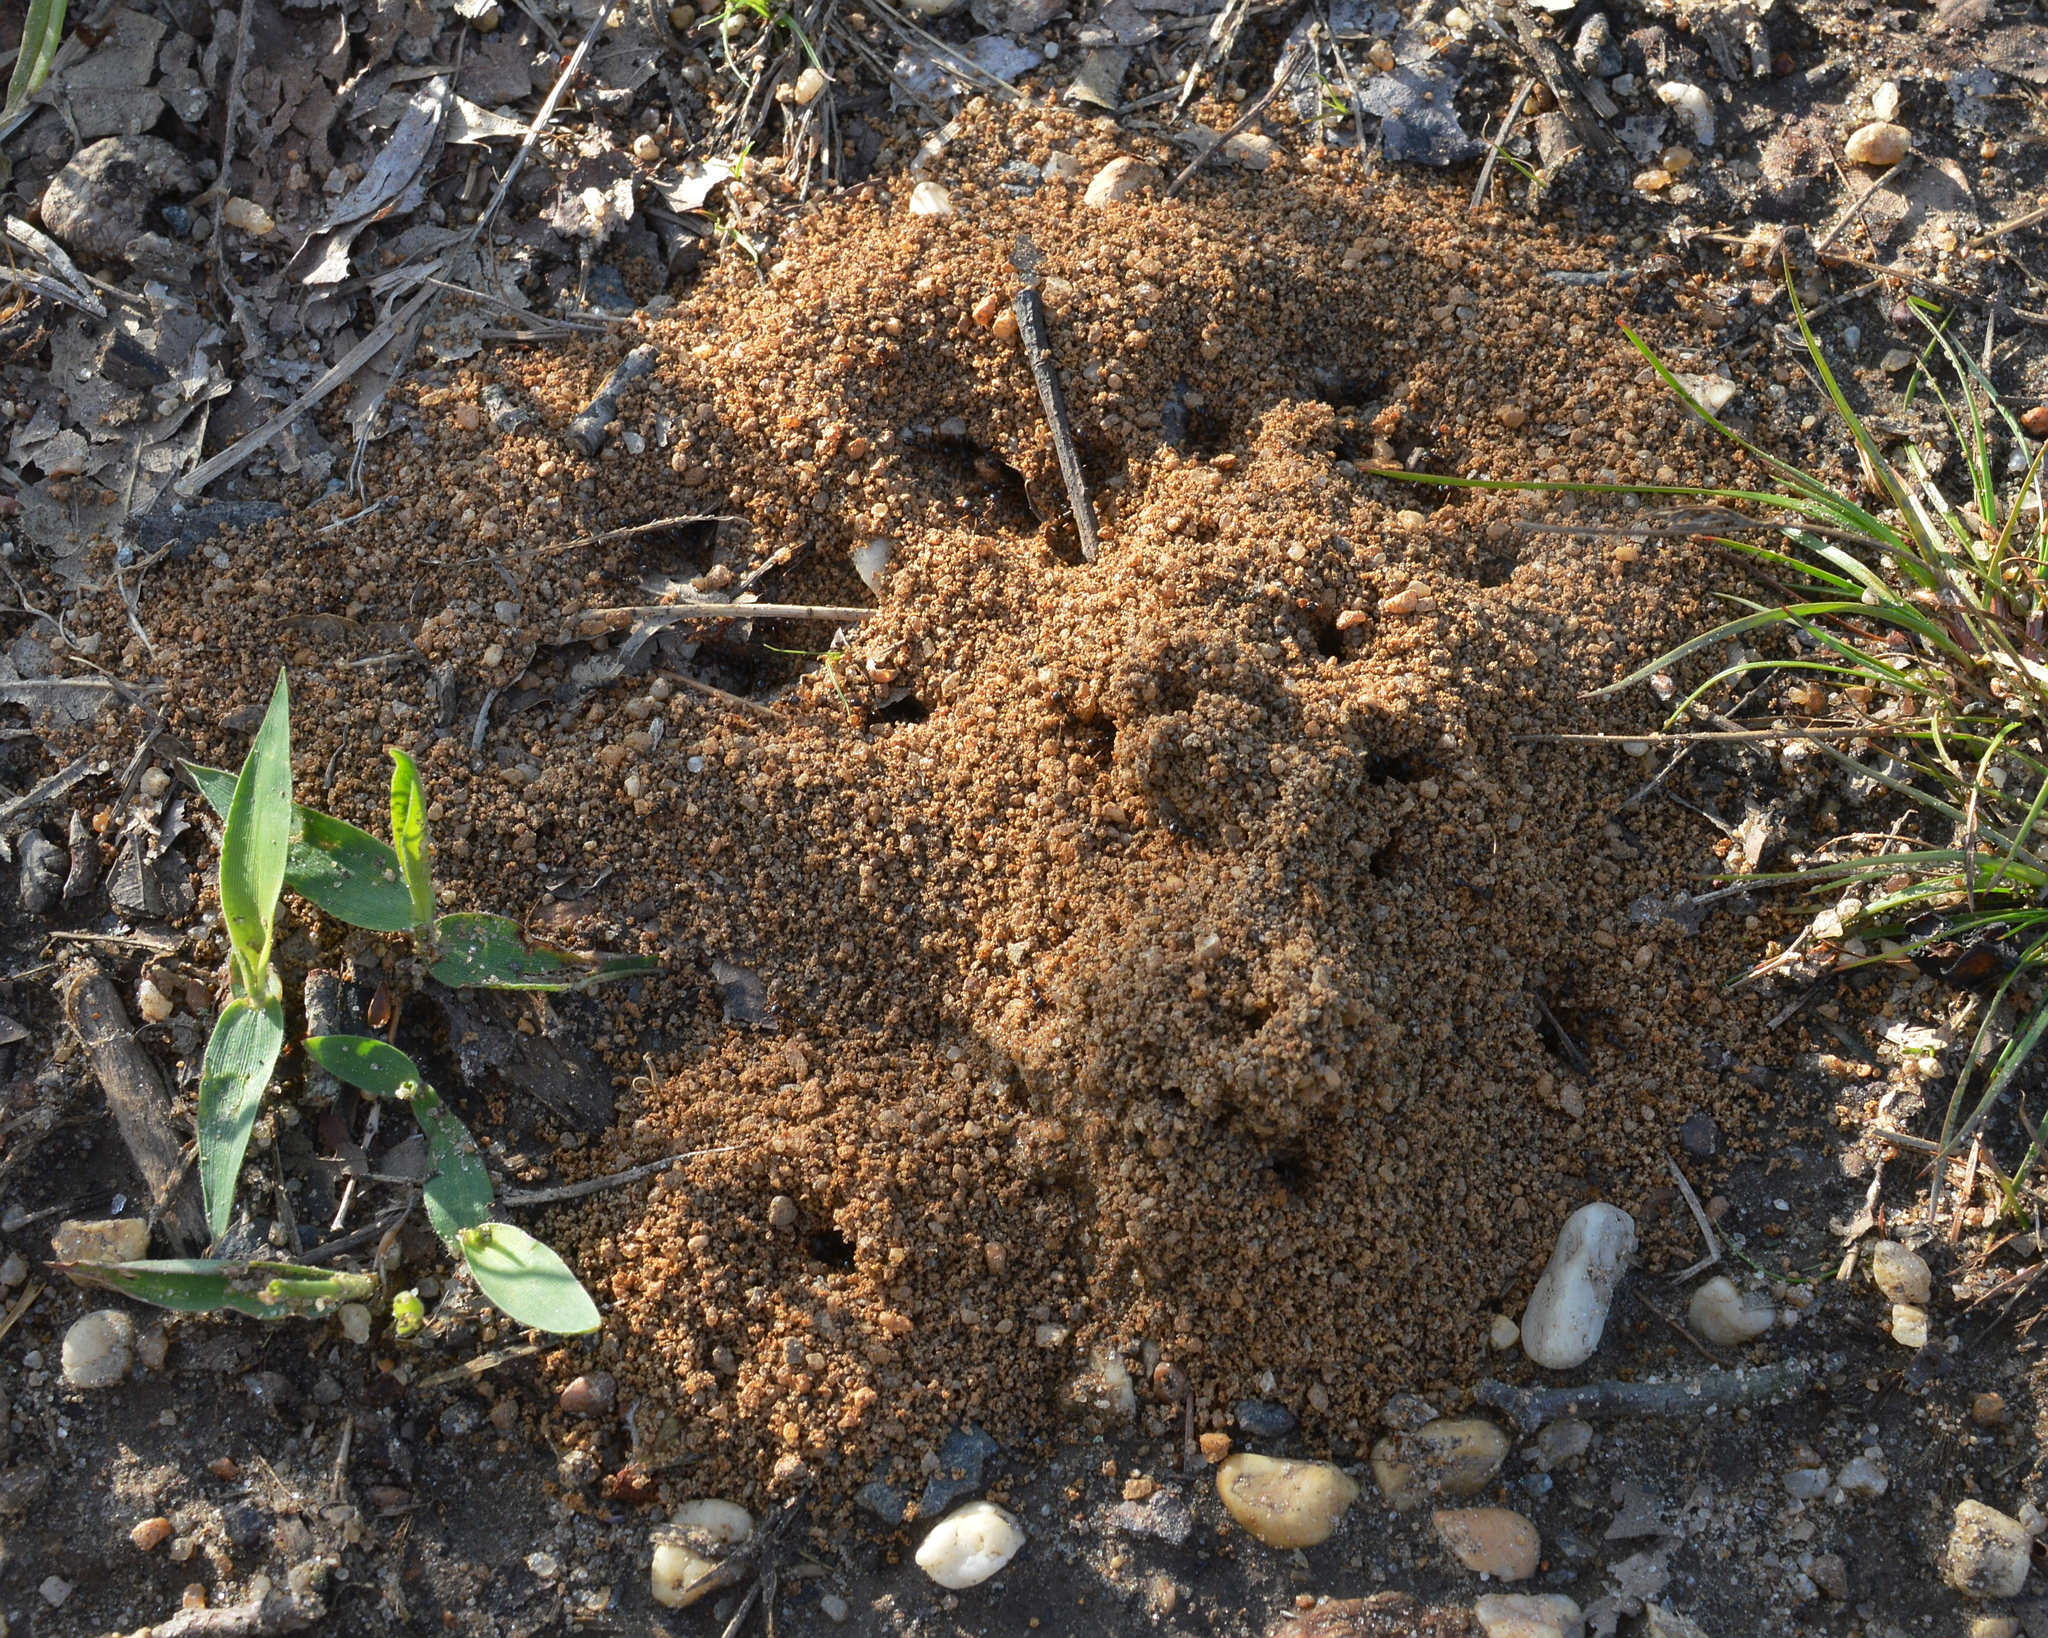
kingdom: Animalia
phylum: Arthropoda
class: Insecta
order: Hymenoptera
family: Formicidae
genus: Tetramorium
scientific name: Tetramorium immigrans
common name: Pavement ant
